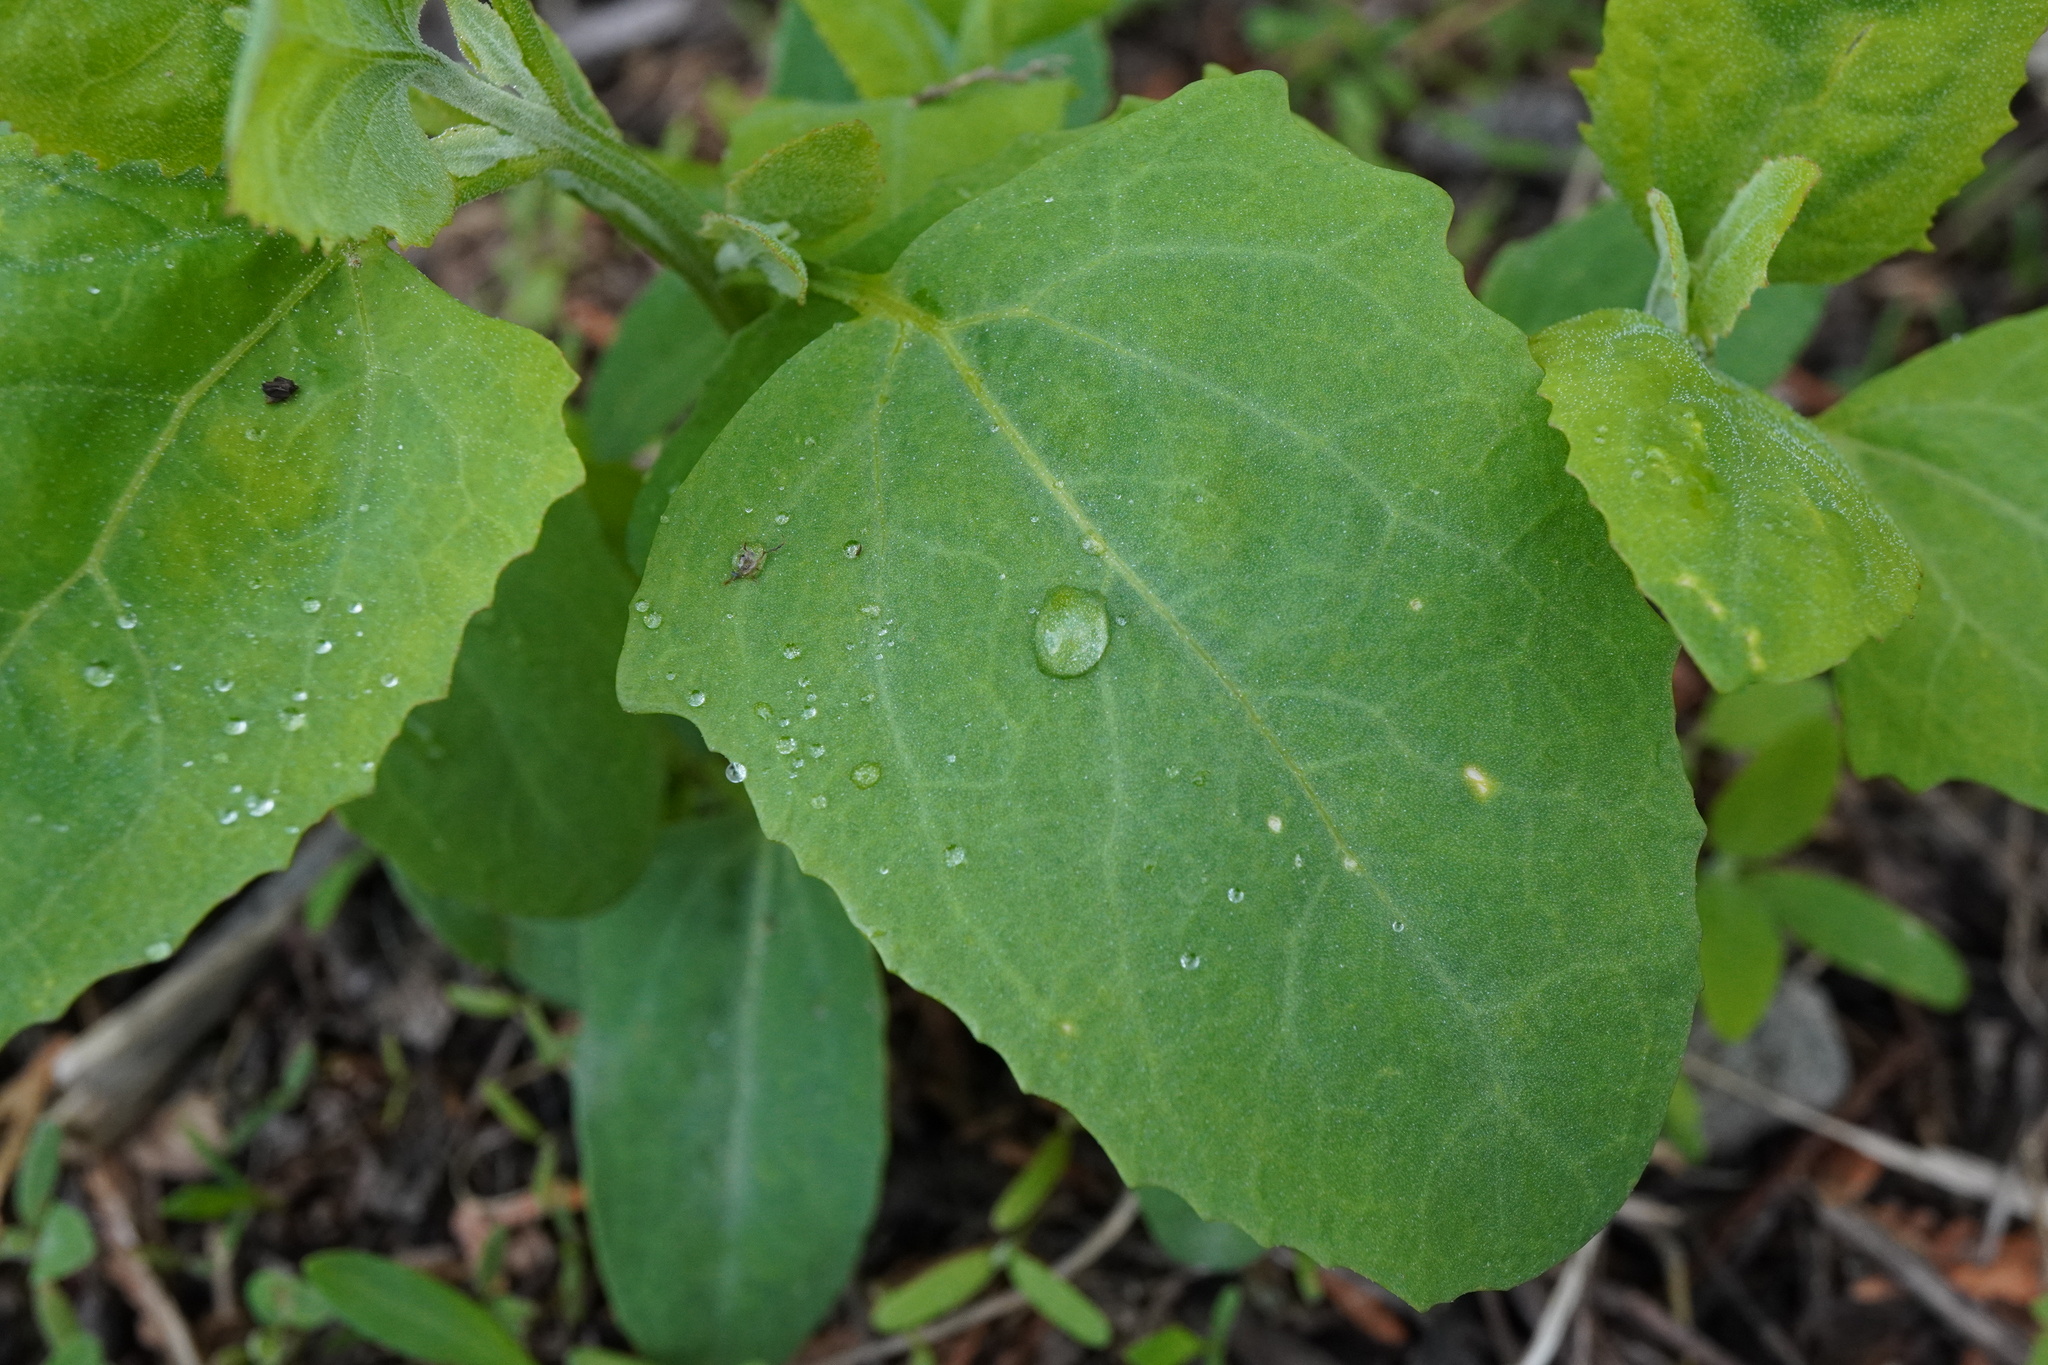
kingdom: Plantae
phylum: Tracheophyta
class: Magnoliopsida
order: Caryophyllales
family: Amaranthaceae
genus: Chenopodium
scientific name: Chenopodium album
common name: Fat-hen
